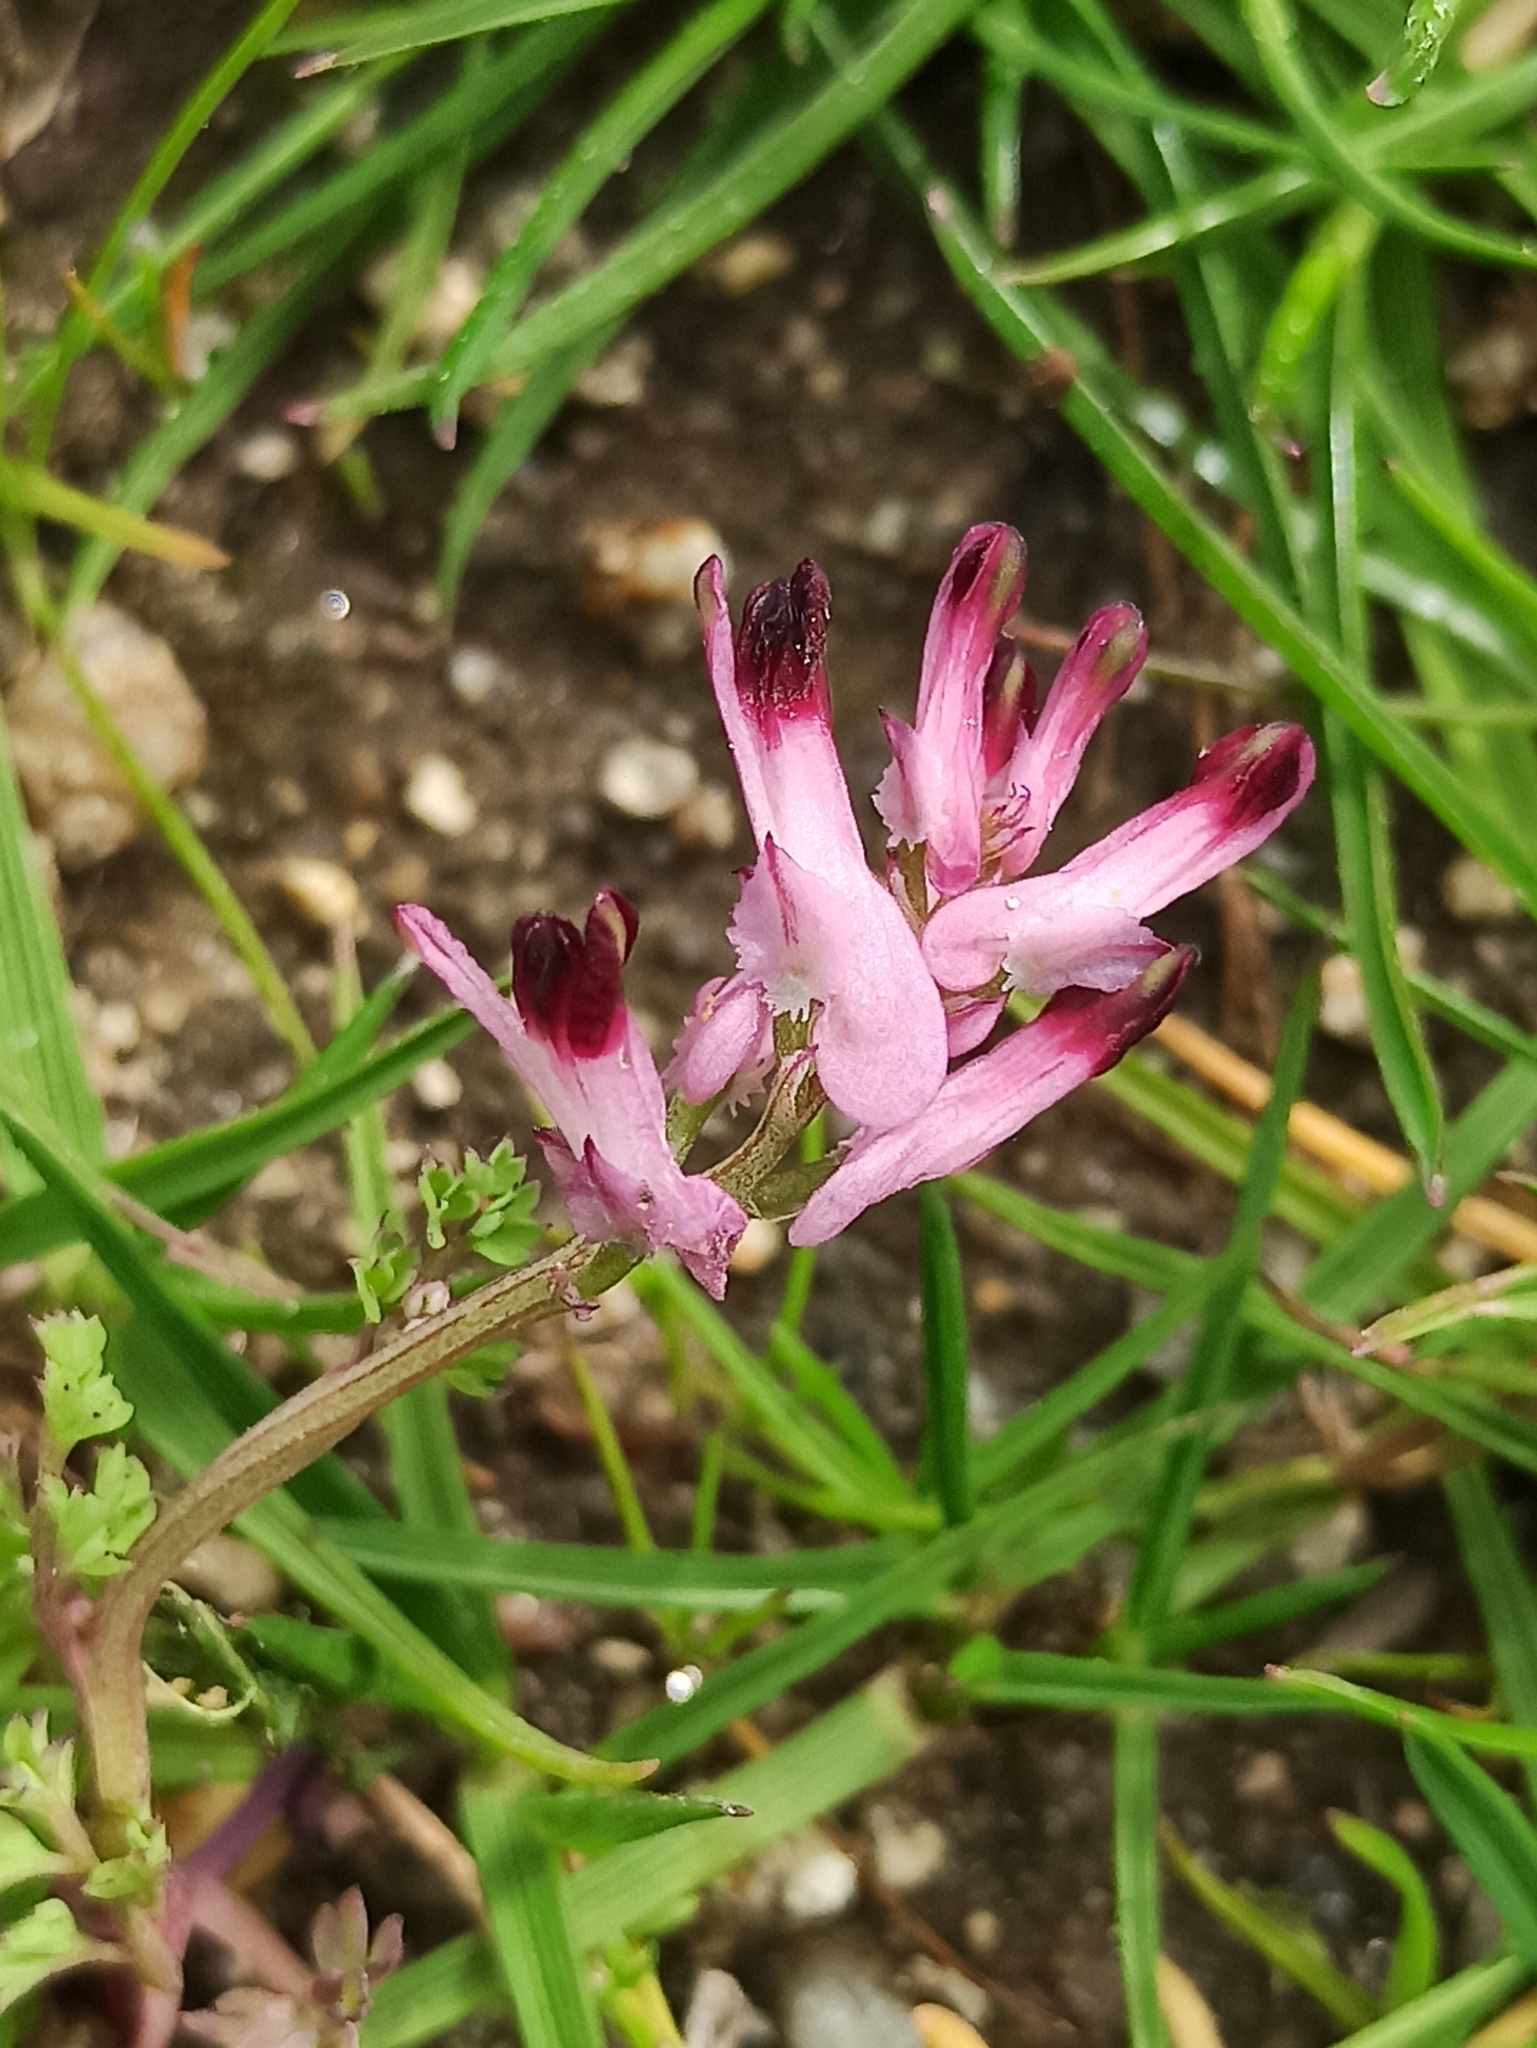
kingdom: Plantae
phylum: Tracheophyta
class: Magnoliopsida
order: Ranunculales
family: Papaveraceae
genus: Fumaria
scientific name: Fumaria officinalis
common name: Common fumitory
